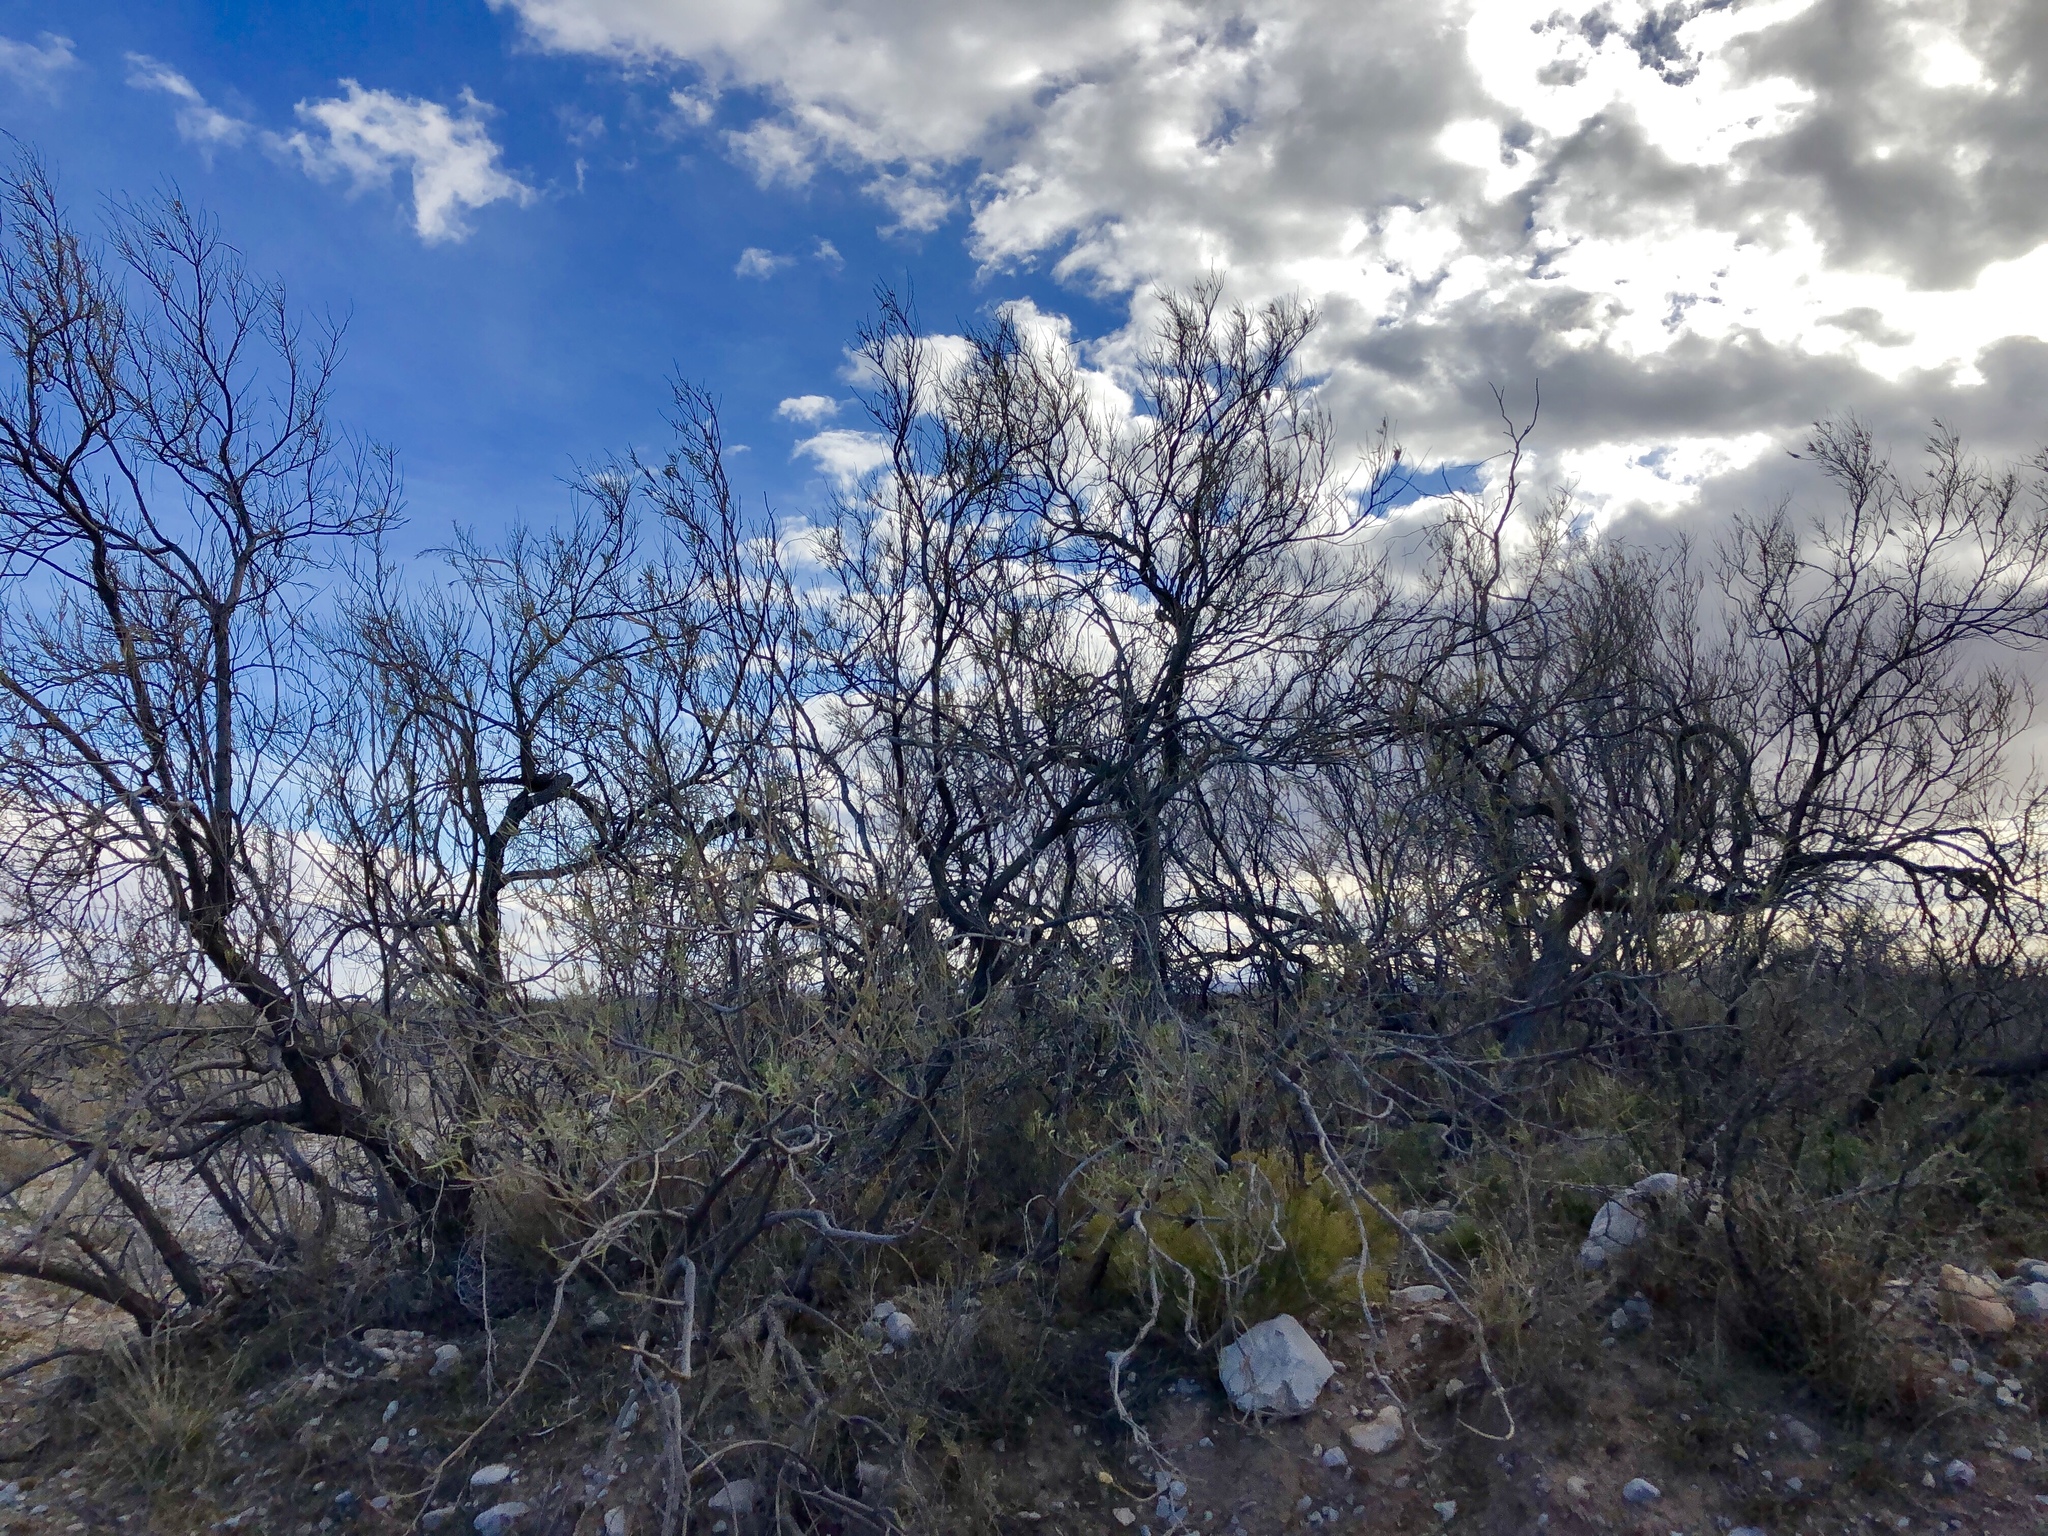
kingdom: Plantae
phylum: Tracheophyta
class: Magnoliopsida
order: Lamiales
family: Bignoniaceae
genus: Chilopsis
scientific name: Chilopsis linearis
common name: Desert-willow
